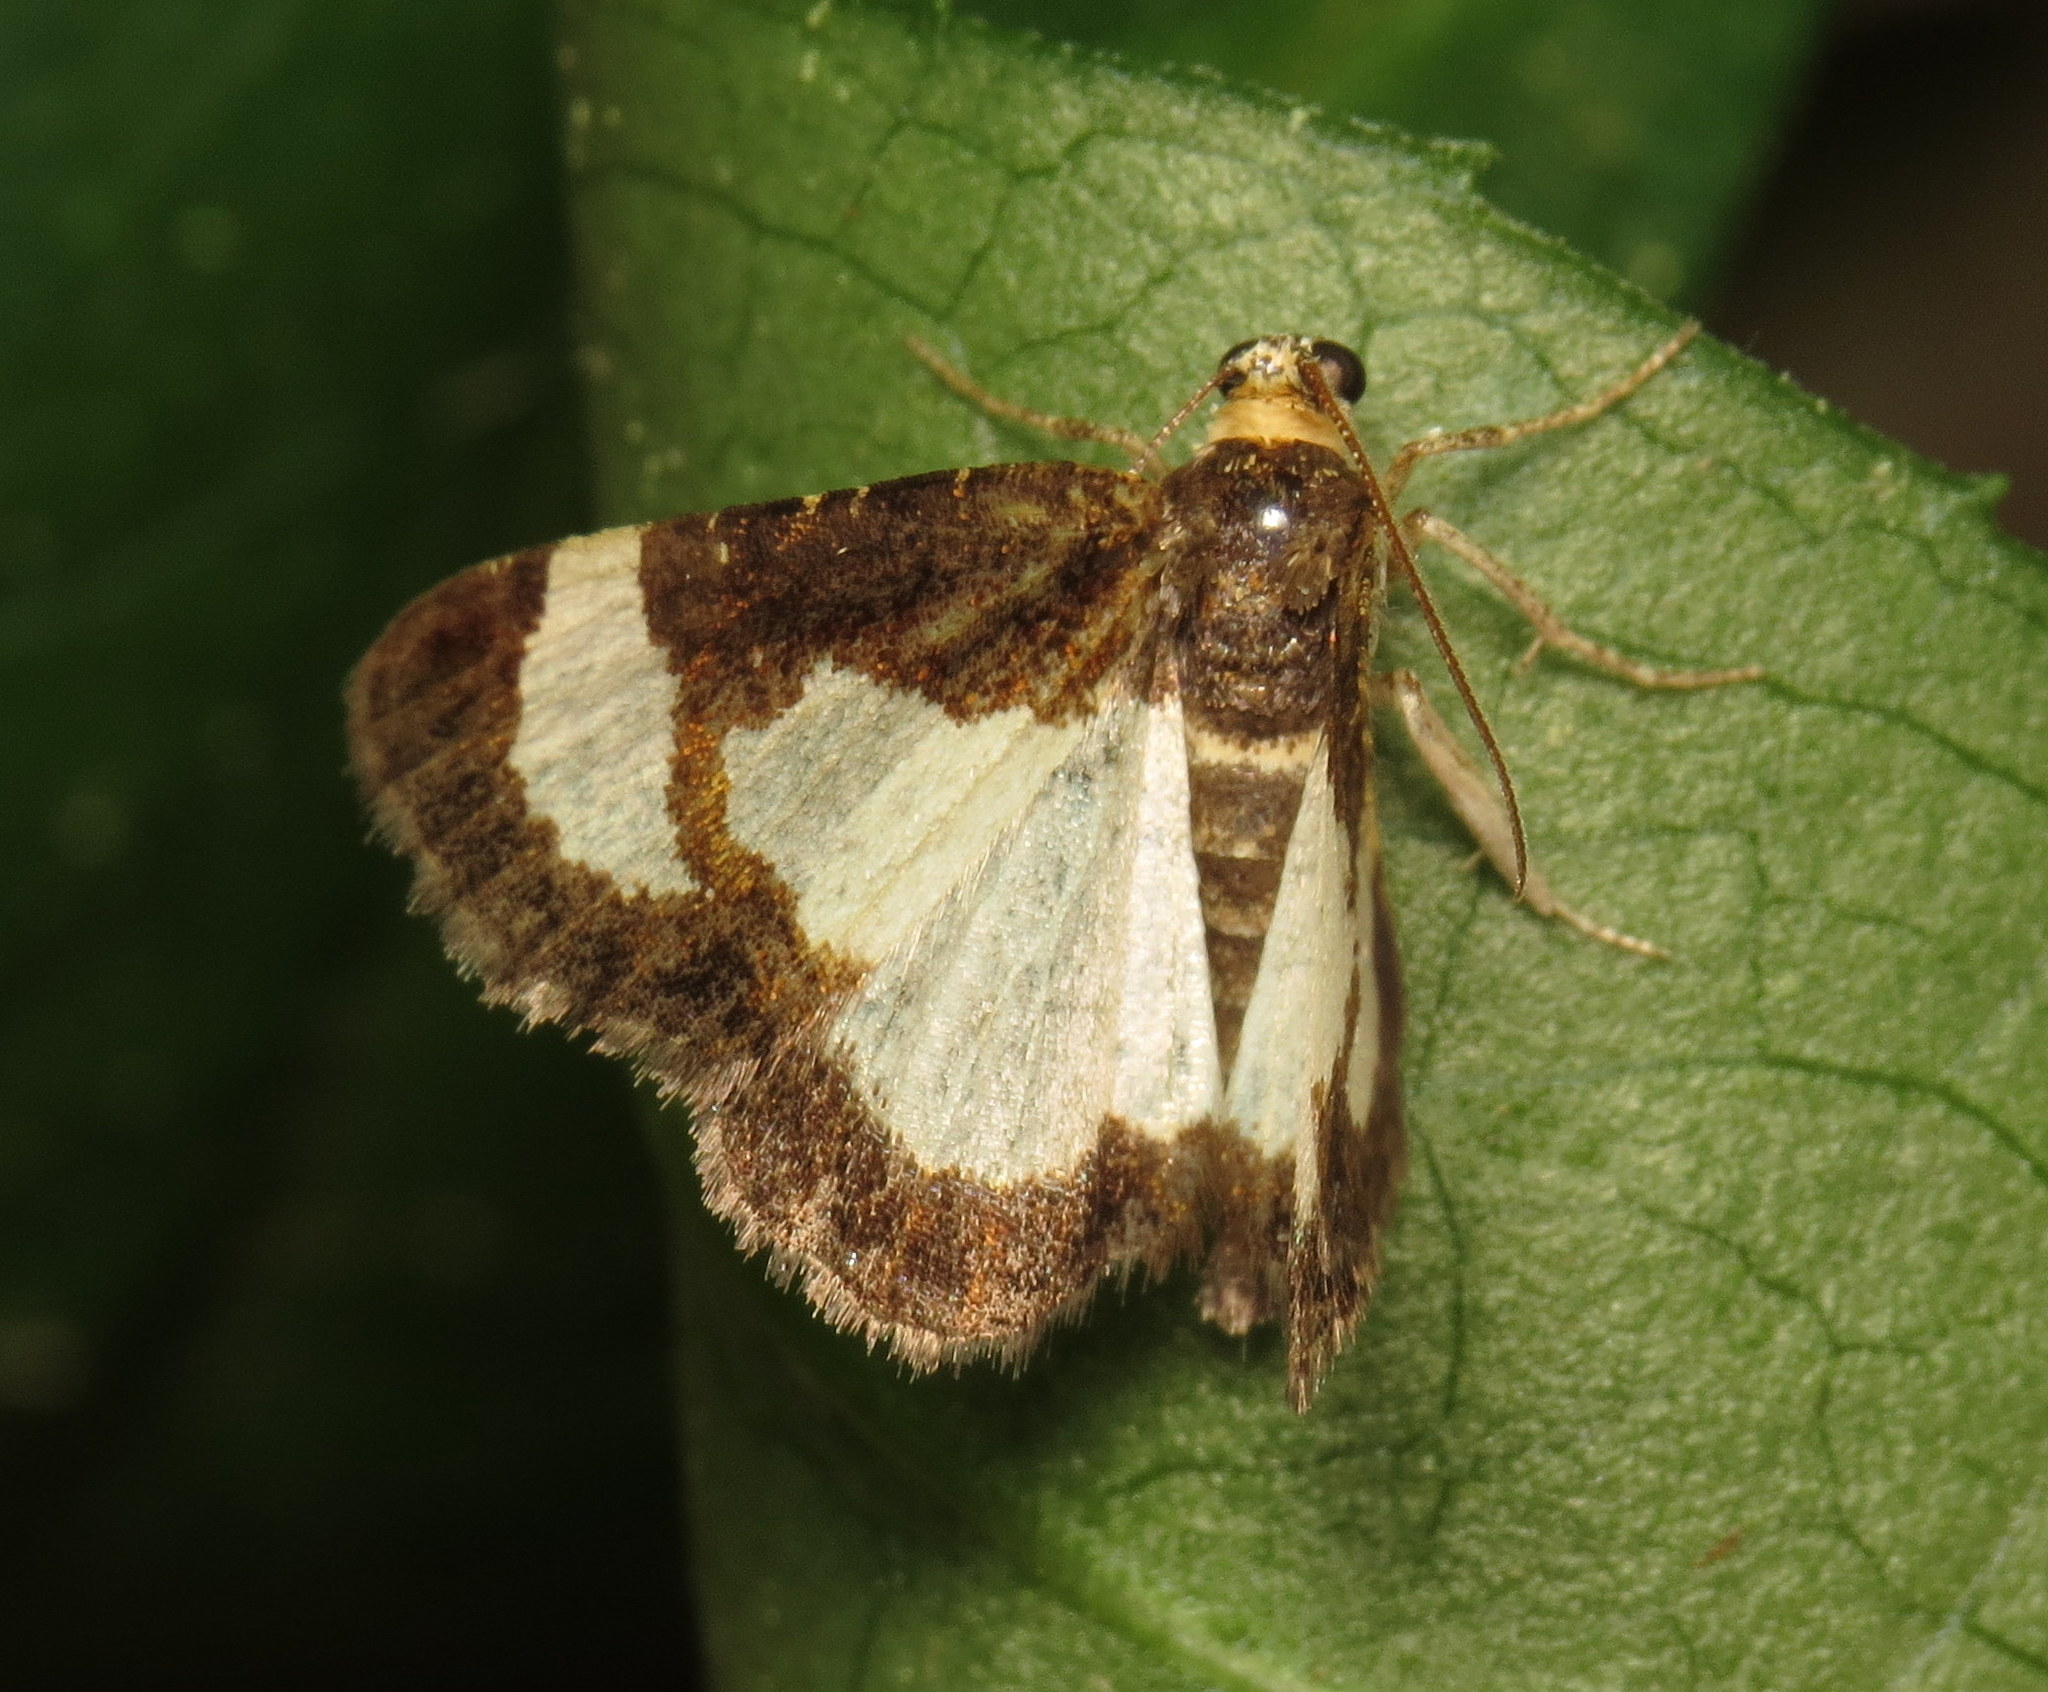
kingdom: Animalia
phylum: Arthropoda
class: Insecta
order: Lepidoptera
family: Geometridae
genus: Heliomata
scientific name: Heliomata cycladata
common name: Common spring moth
